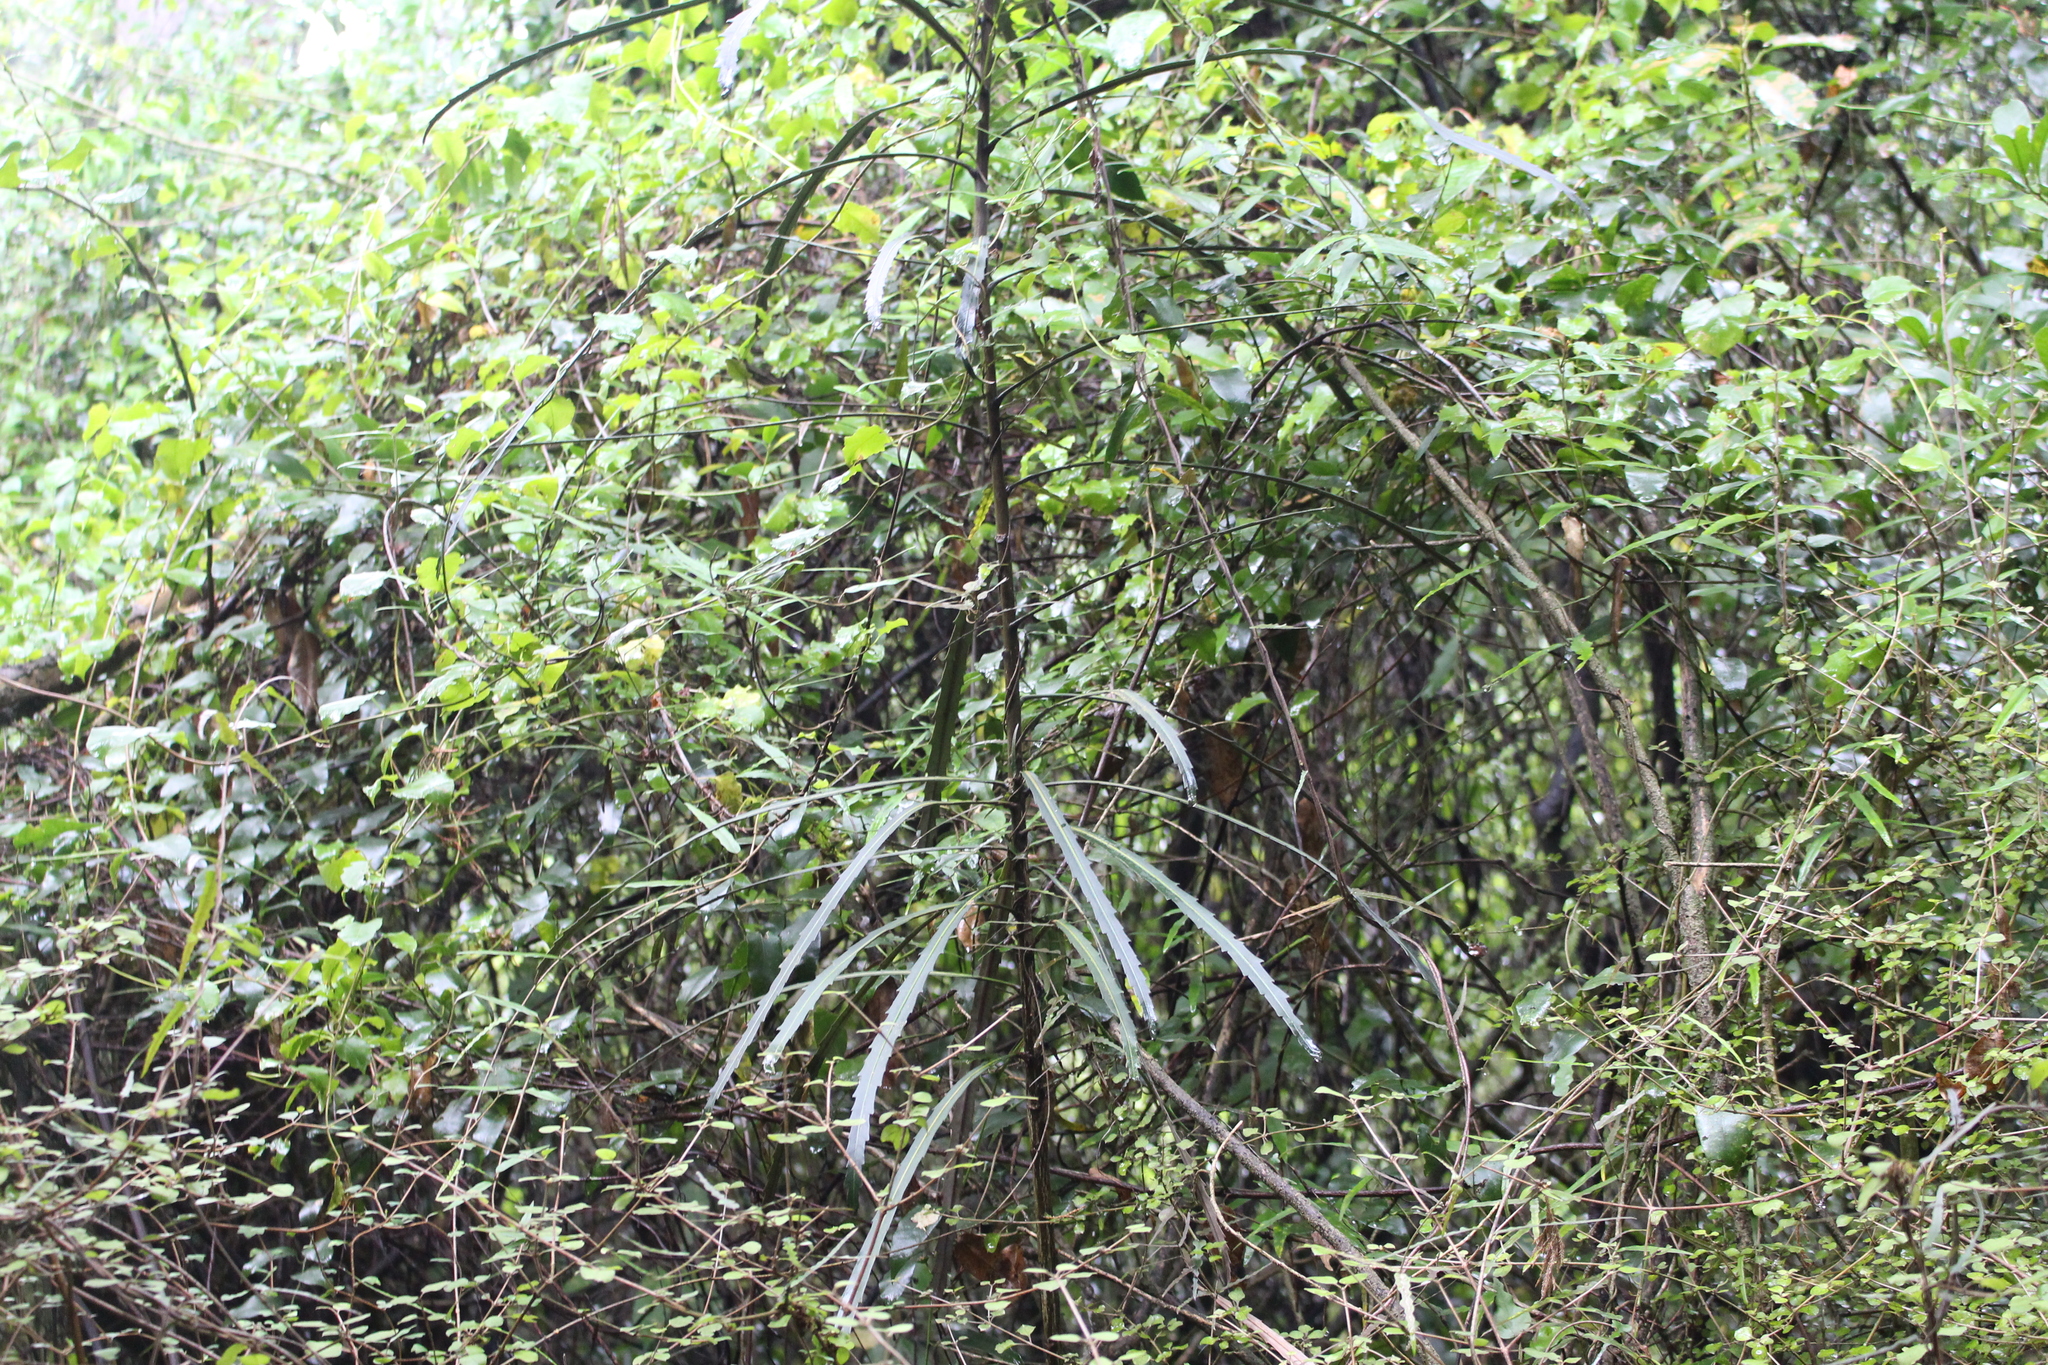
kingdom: Plantae
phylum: Tracheophyta
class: Magnoliopsida
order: Apiales
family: Araliaceae
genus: Pseudopanax
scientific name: Pseudopanax crassifolius
